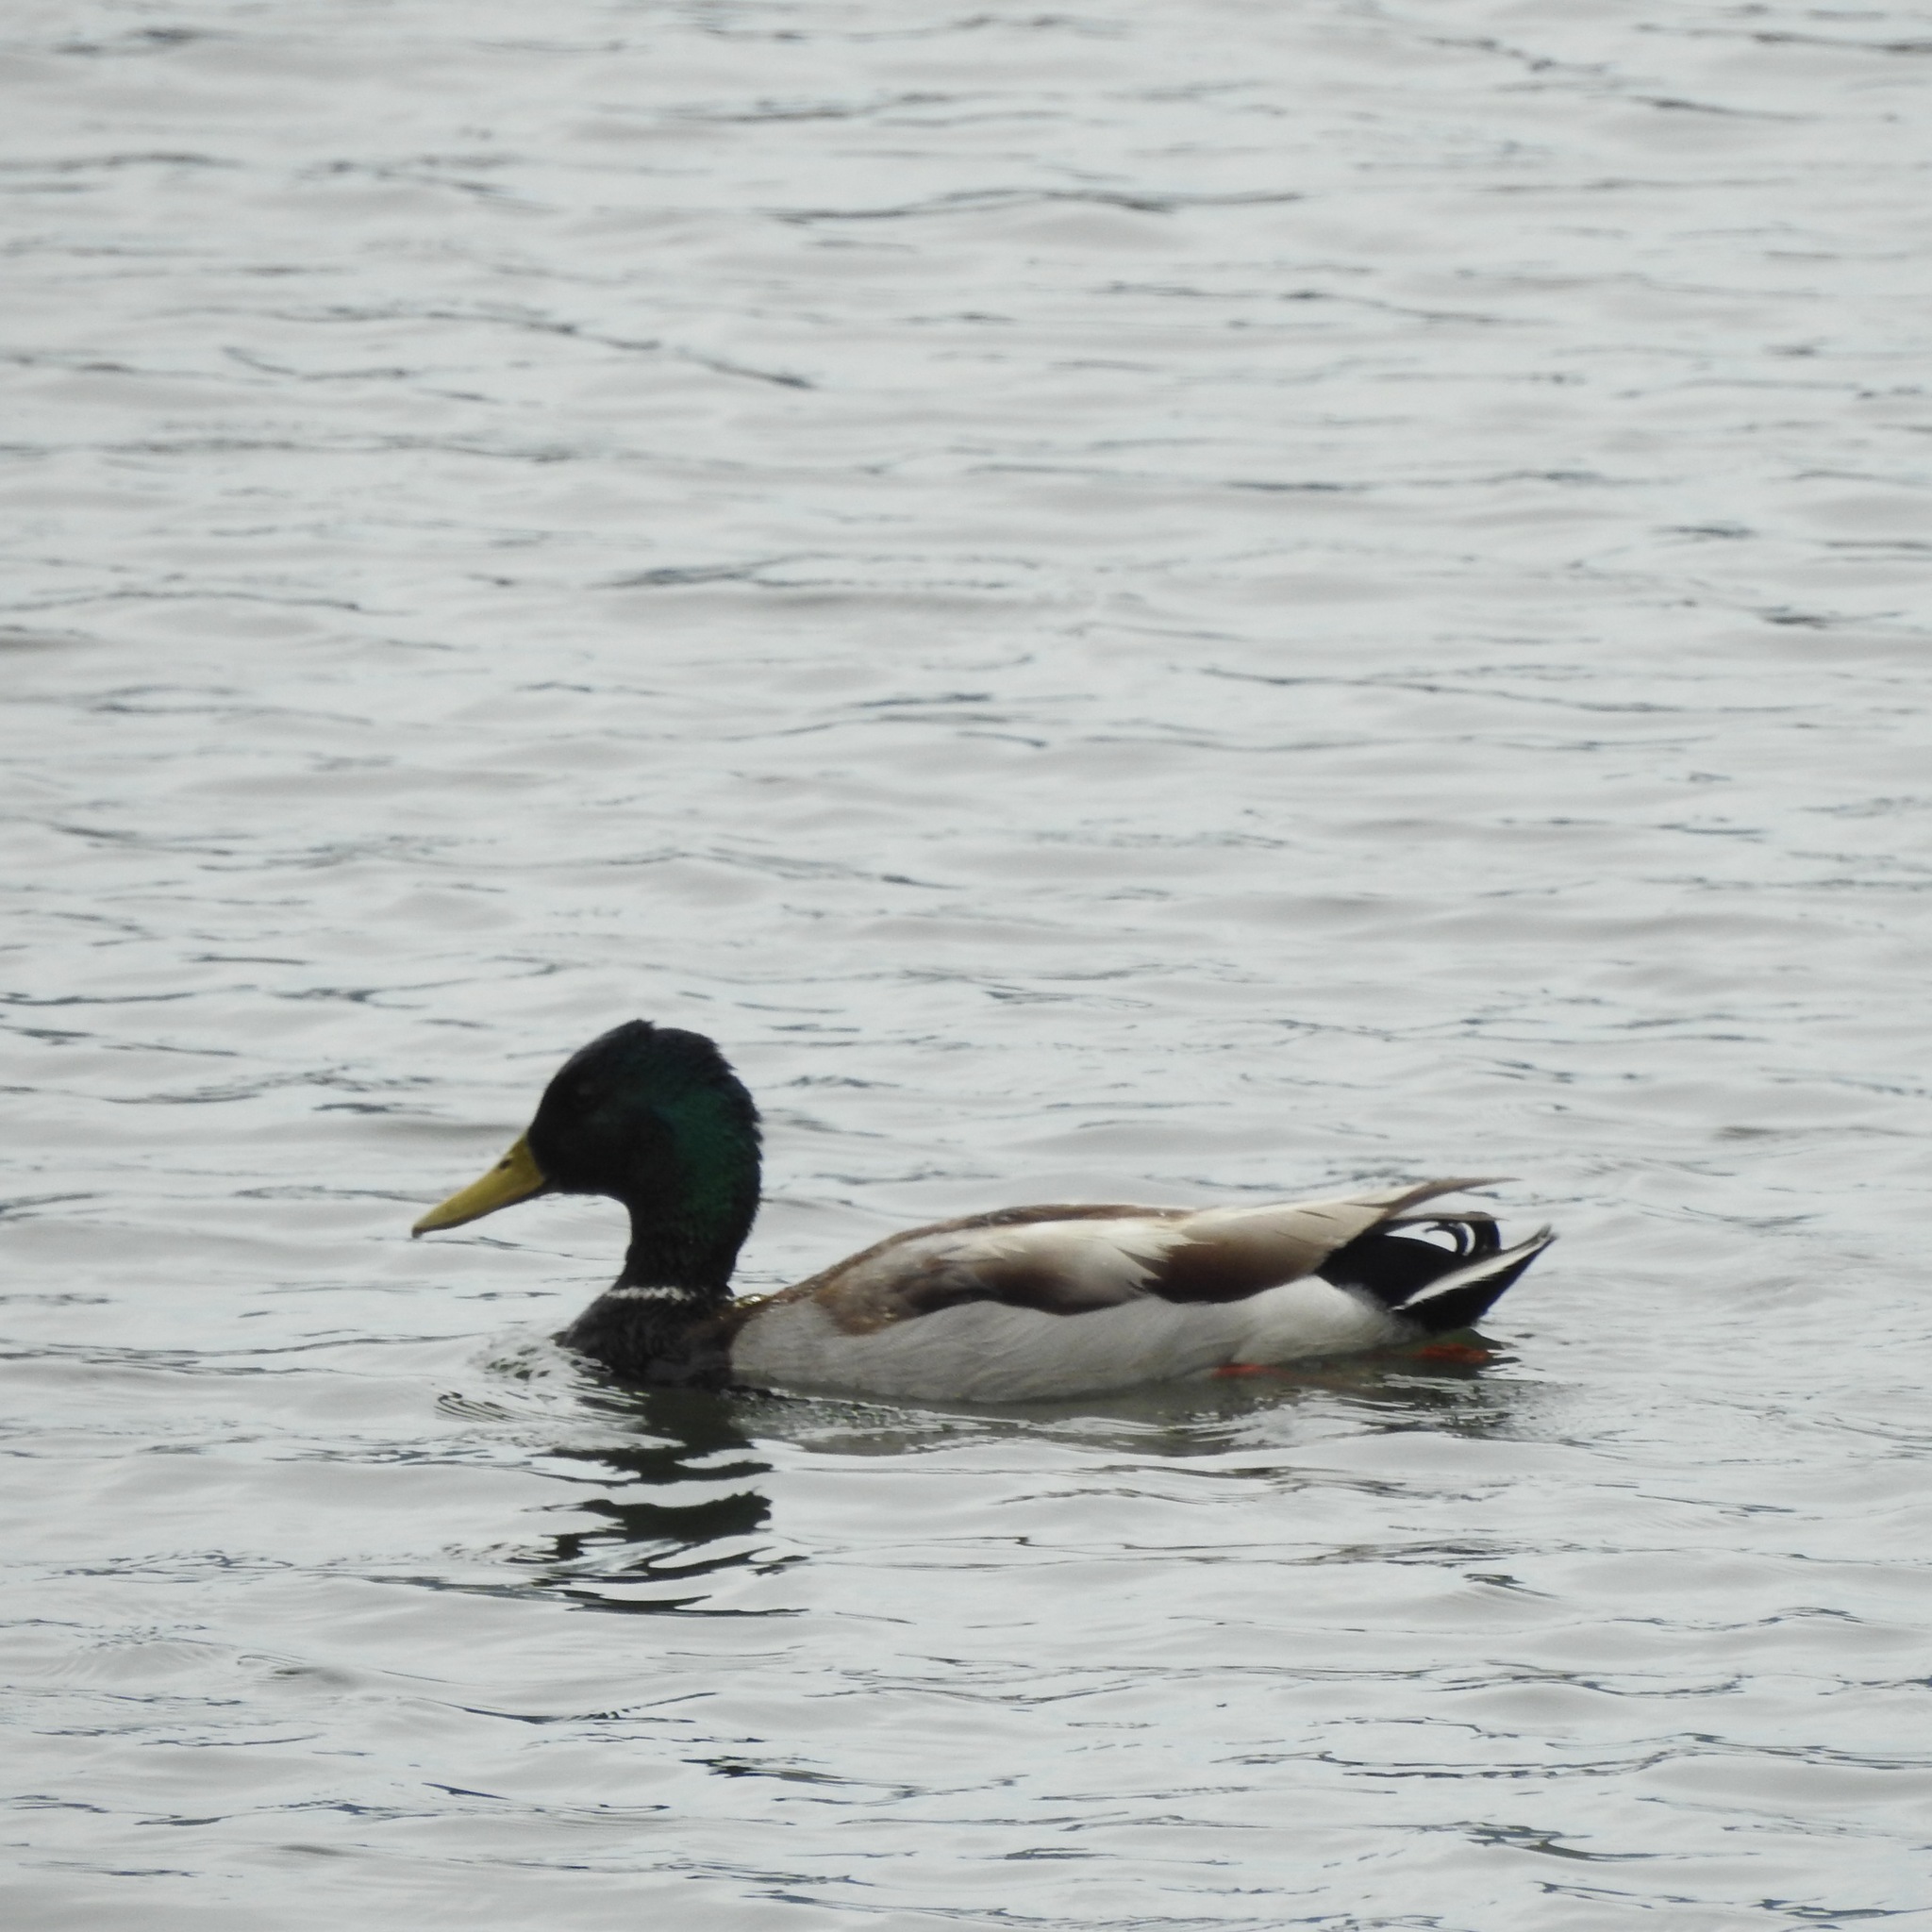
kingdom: Animalia
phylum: Chordata
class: Aves
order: Anseriformes
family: Anatidae
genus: Anas
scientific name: Anas platyrhynchos
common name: Mallard
